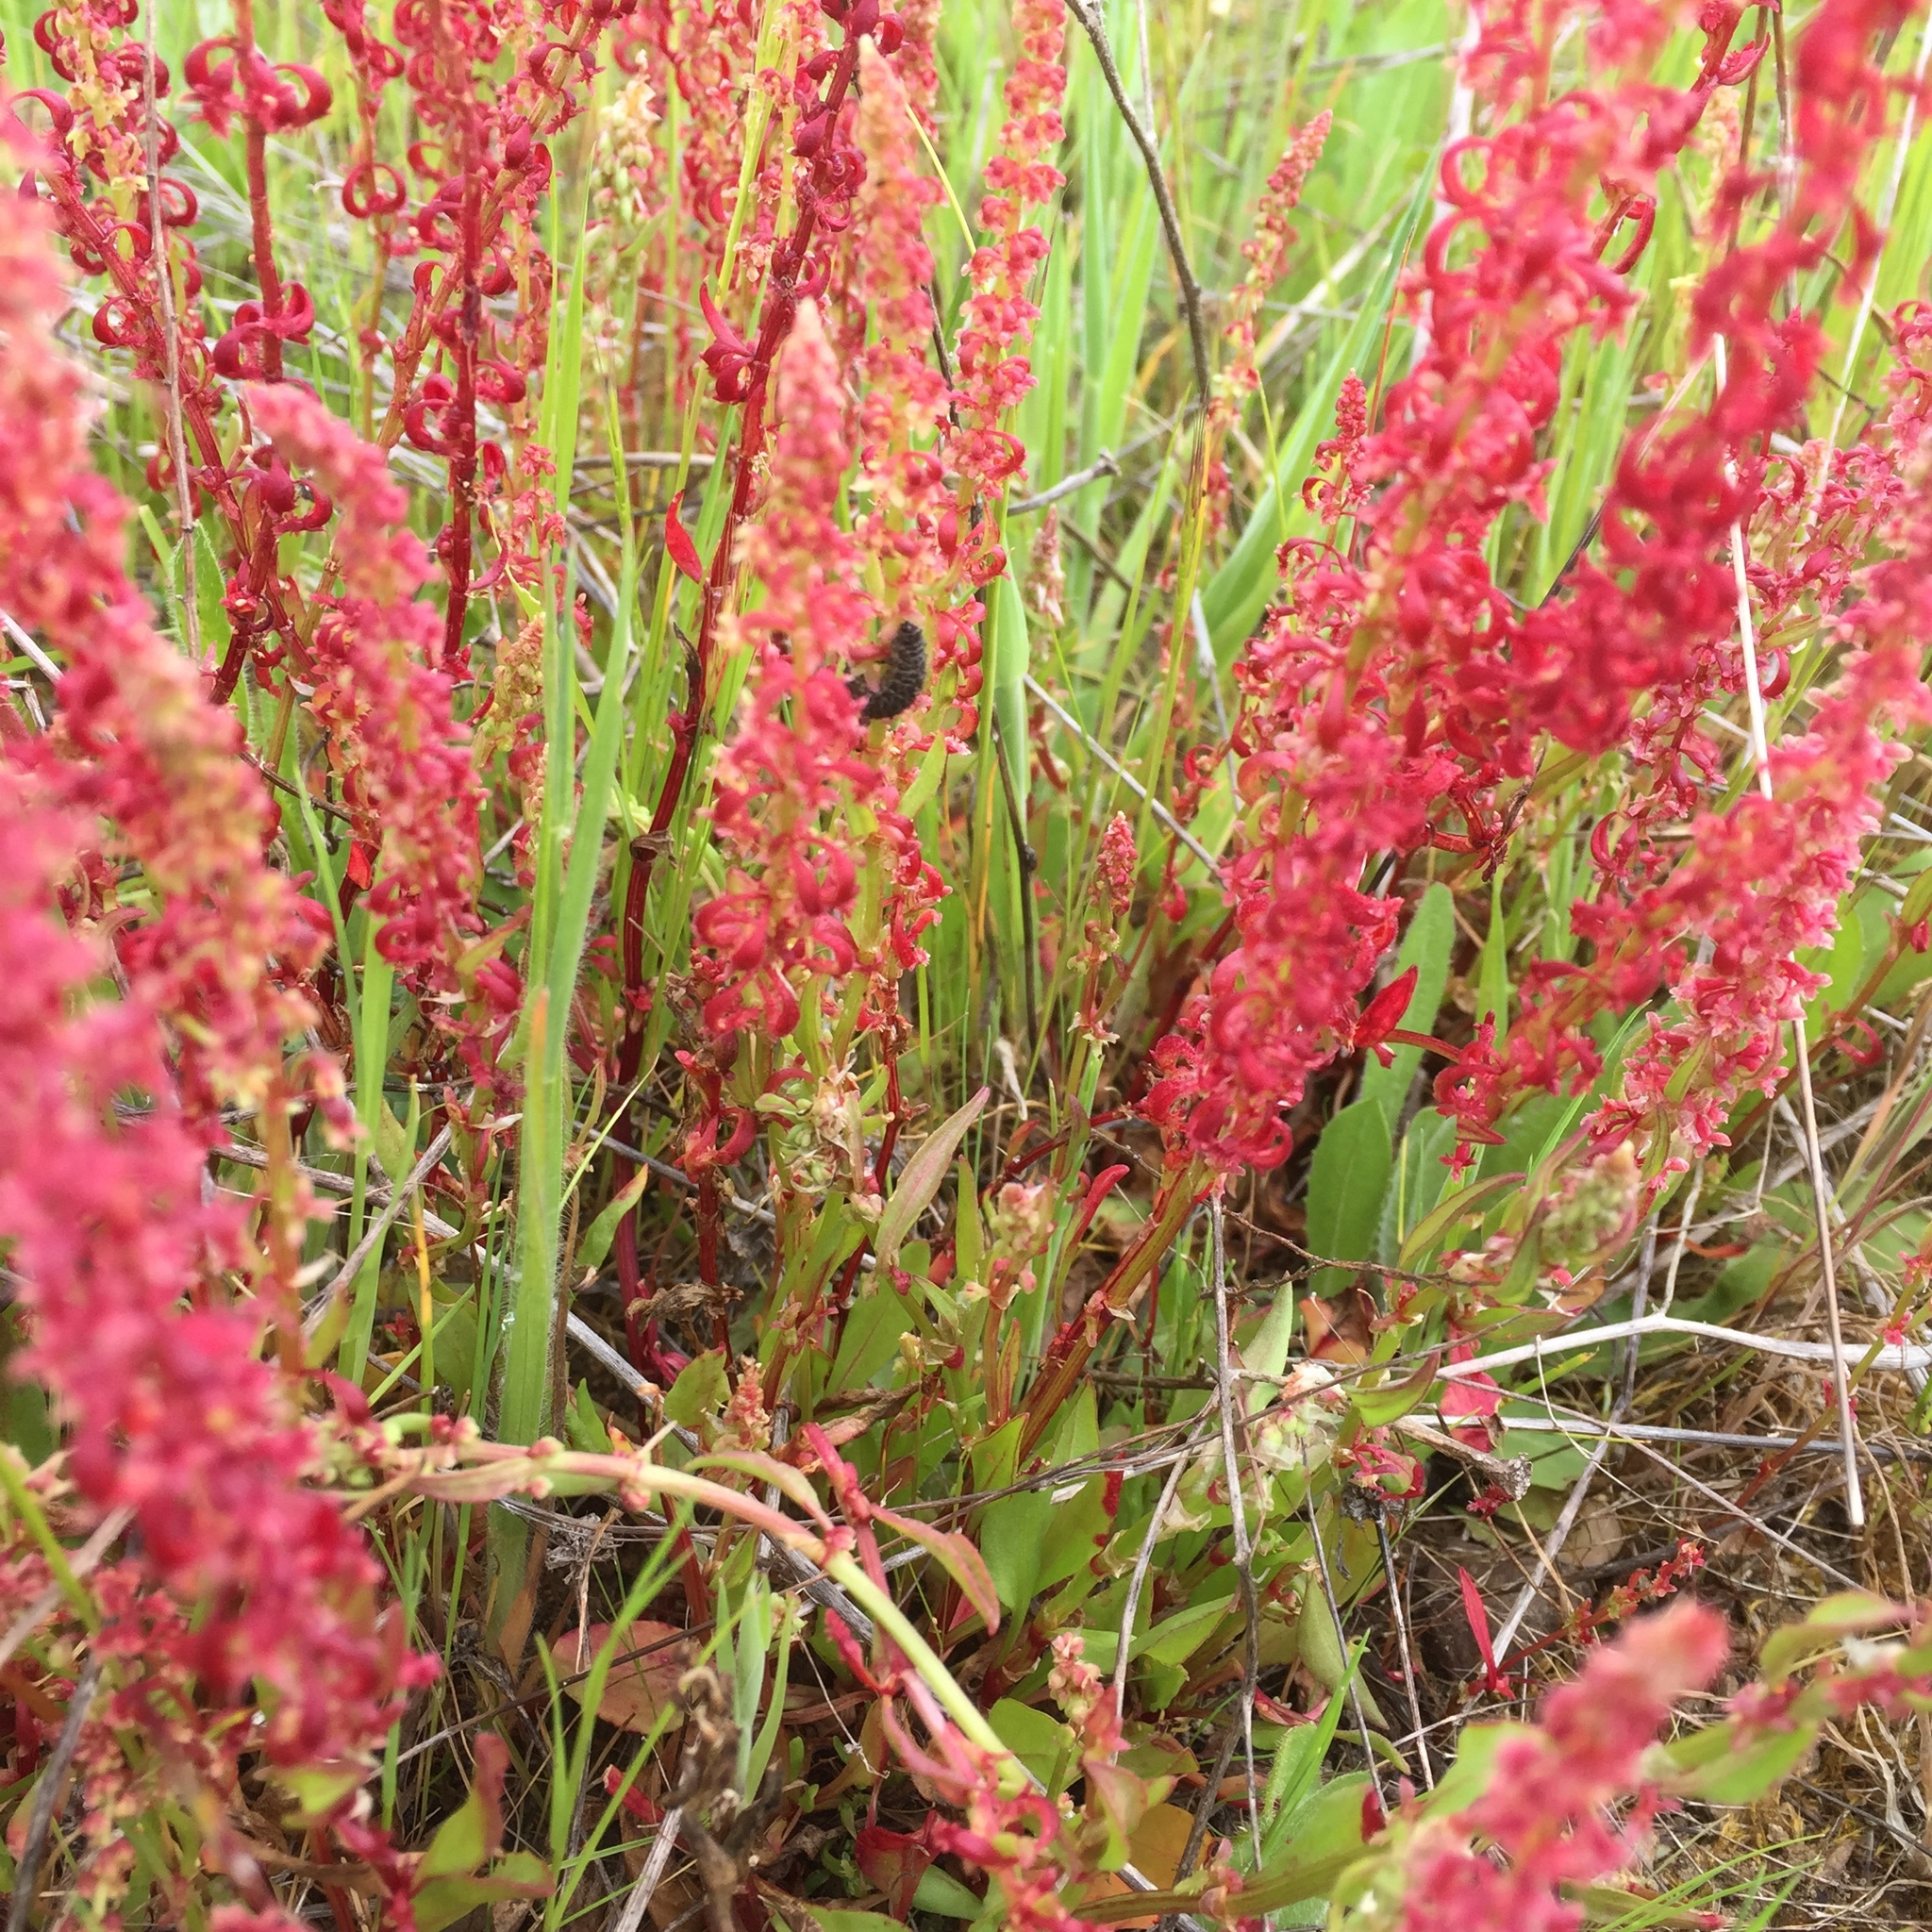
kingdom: Plantae
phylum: Tracheophyta
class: Magnoliopsida
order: Caryophyllales
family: Polygonaceae
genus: Rumex
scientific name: Rumex bucephalophorus
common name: Red dock
